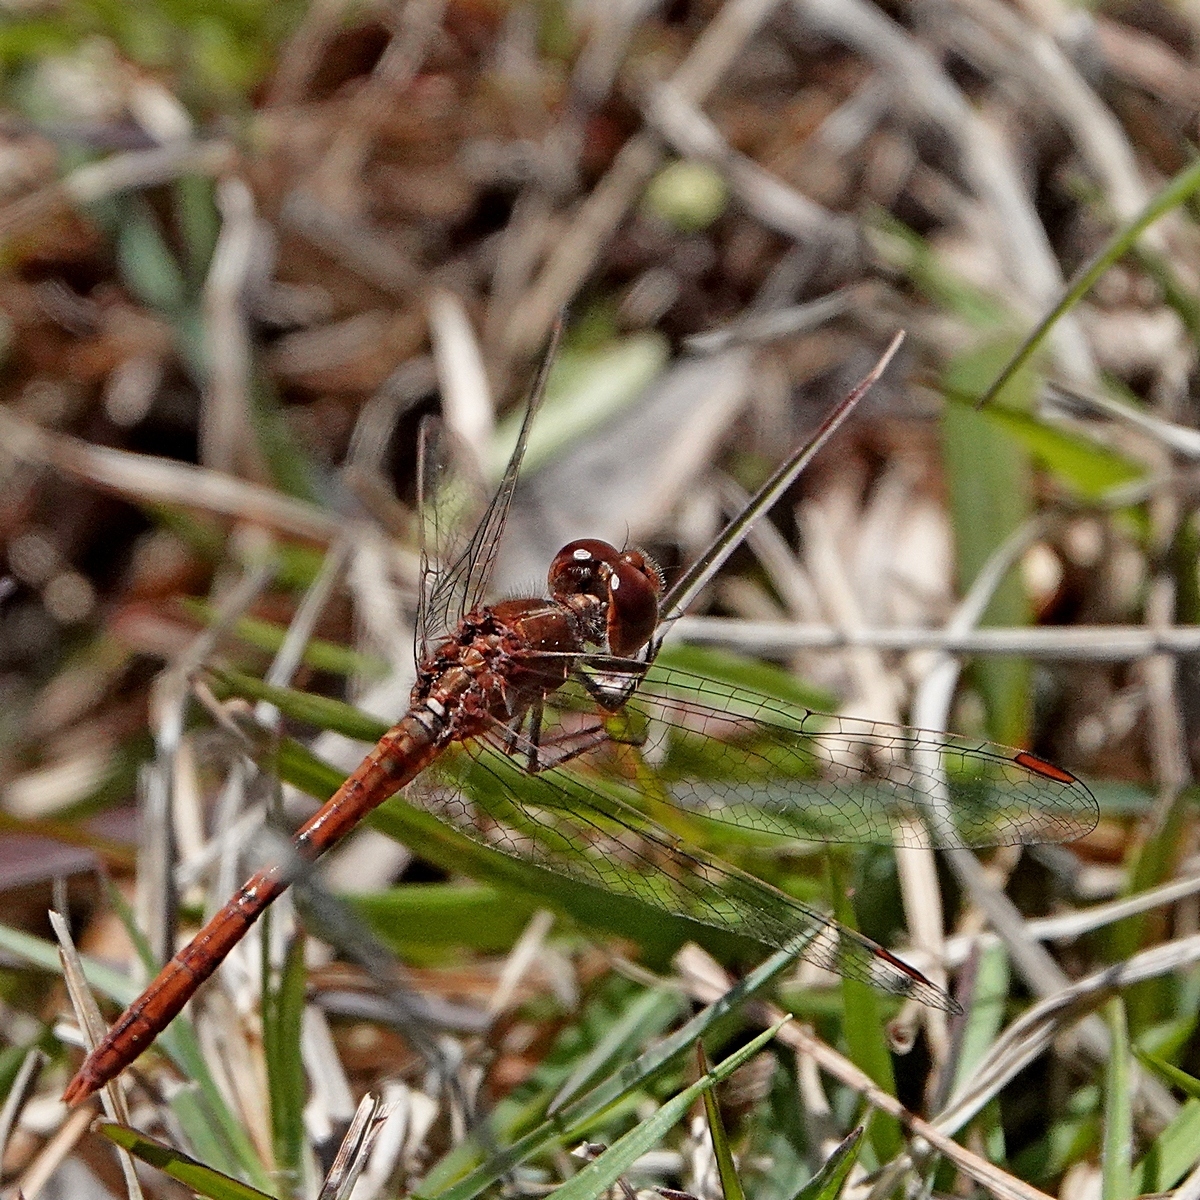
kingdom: Animalia
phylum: Arthropoda
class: Insecta
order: Odonata
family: Libellulidae
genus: Diplacodes
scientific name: Diplacodes bipunctata
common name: Red percher dragonfly
